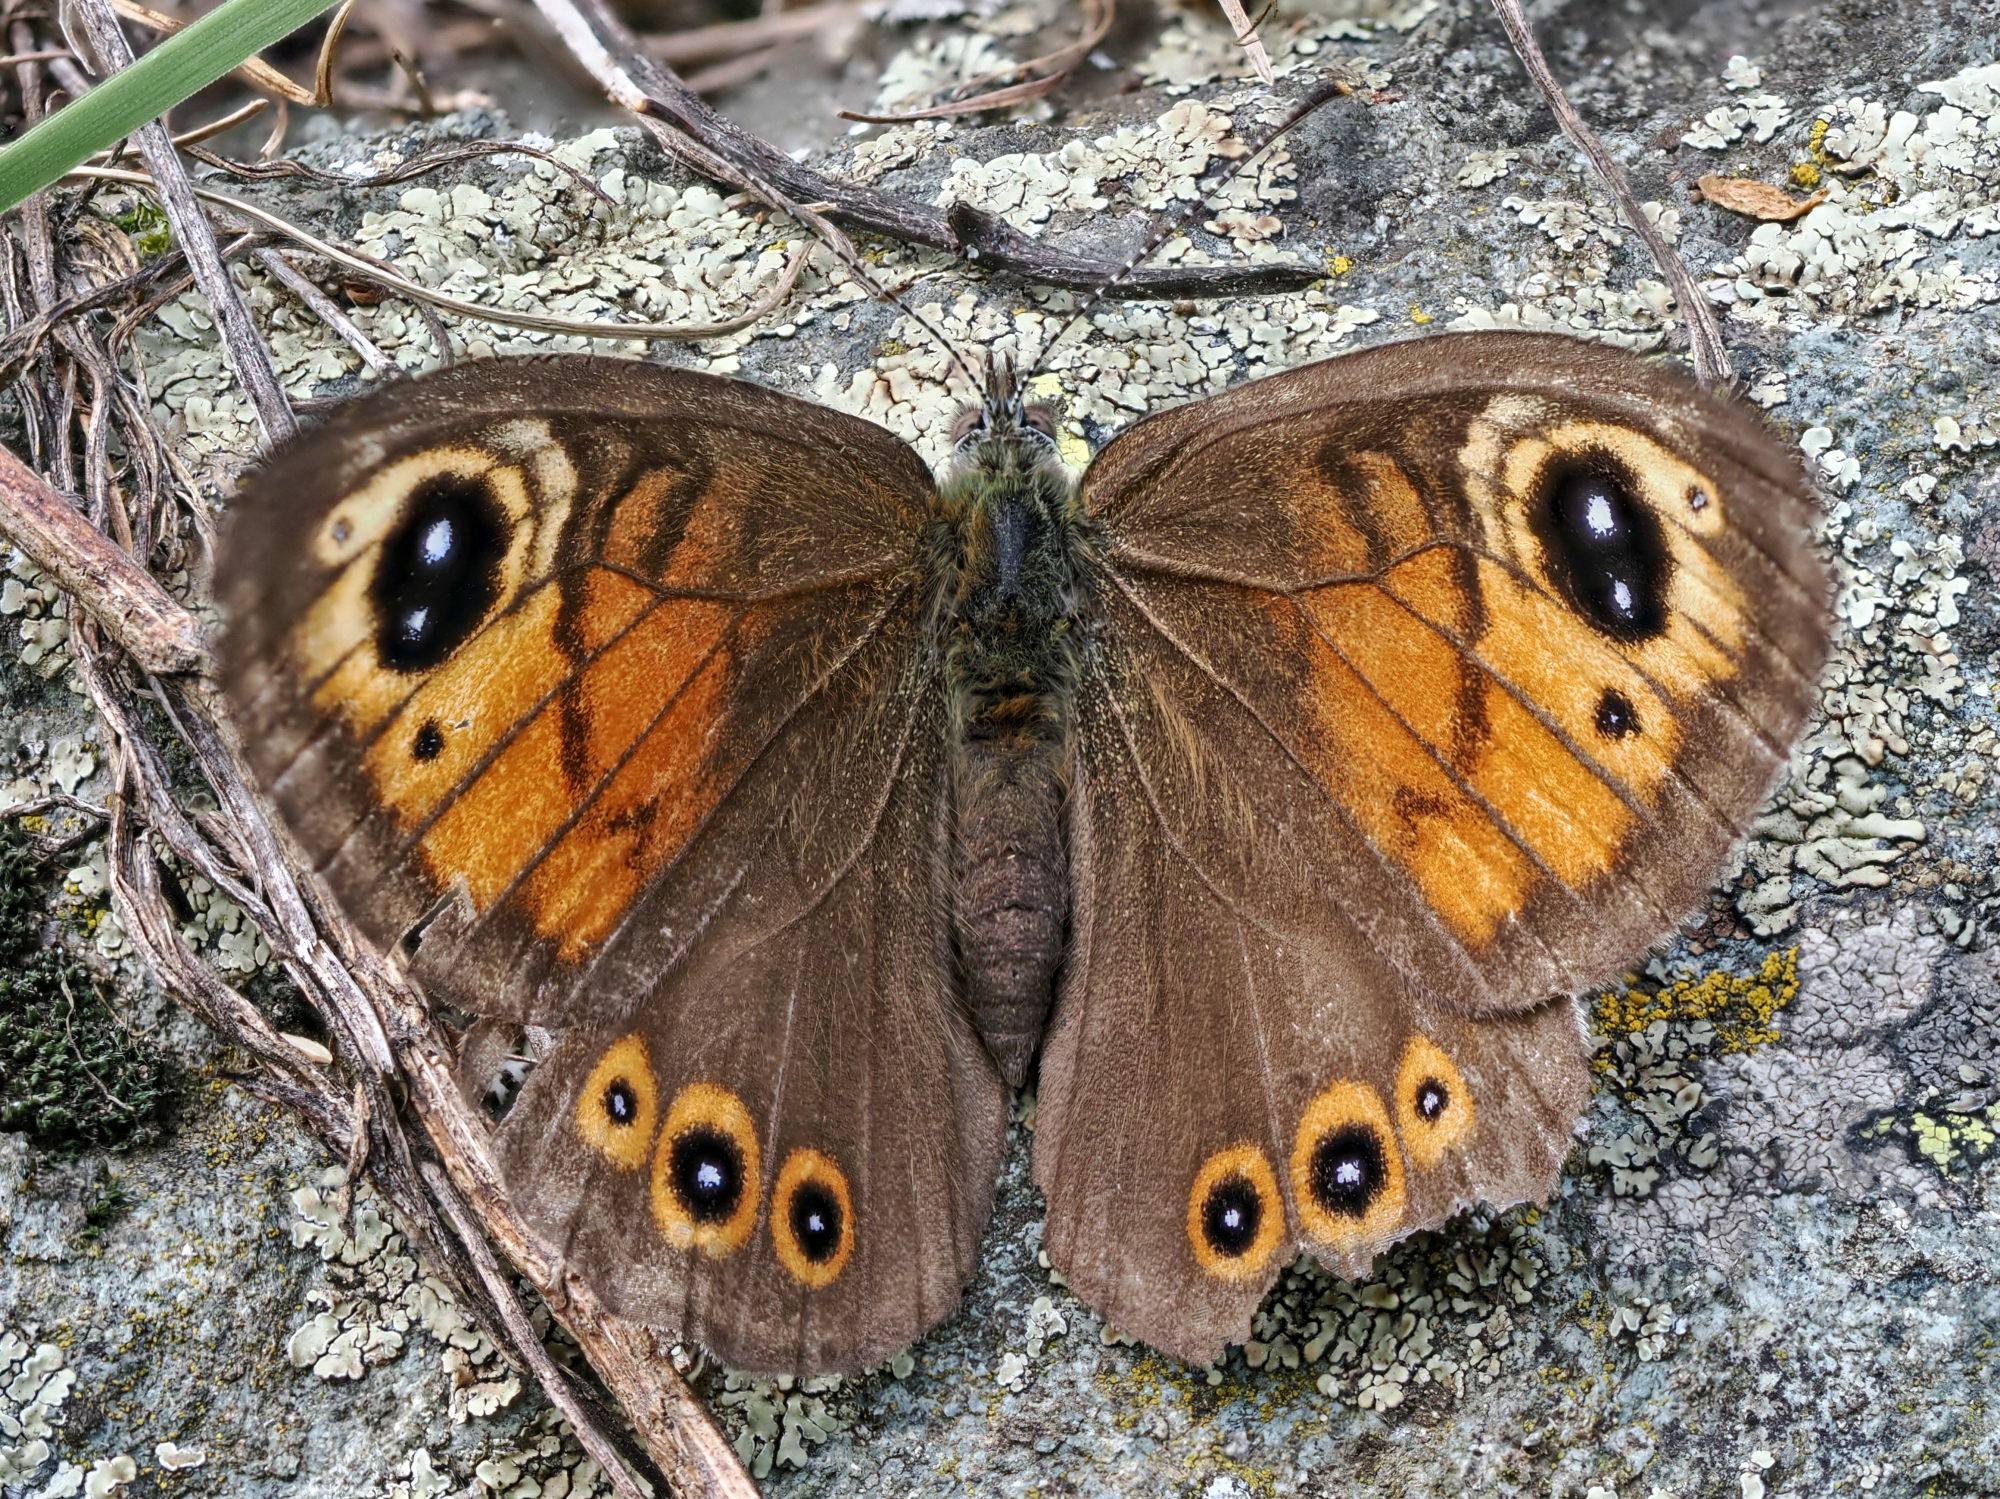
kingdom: Animalia
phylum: Arthropoda
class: Insecta
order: Lepidoptera
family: Nymphalidae
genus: Pararge
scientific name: Pararge Lasiommata maera
